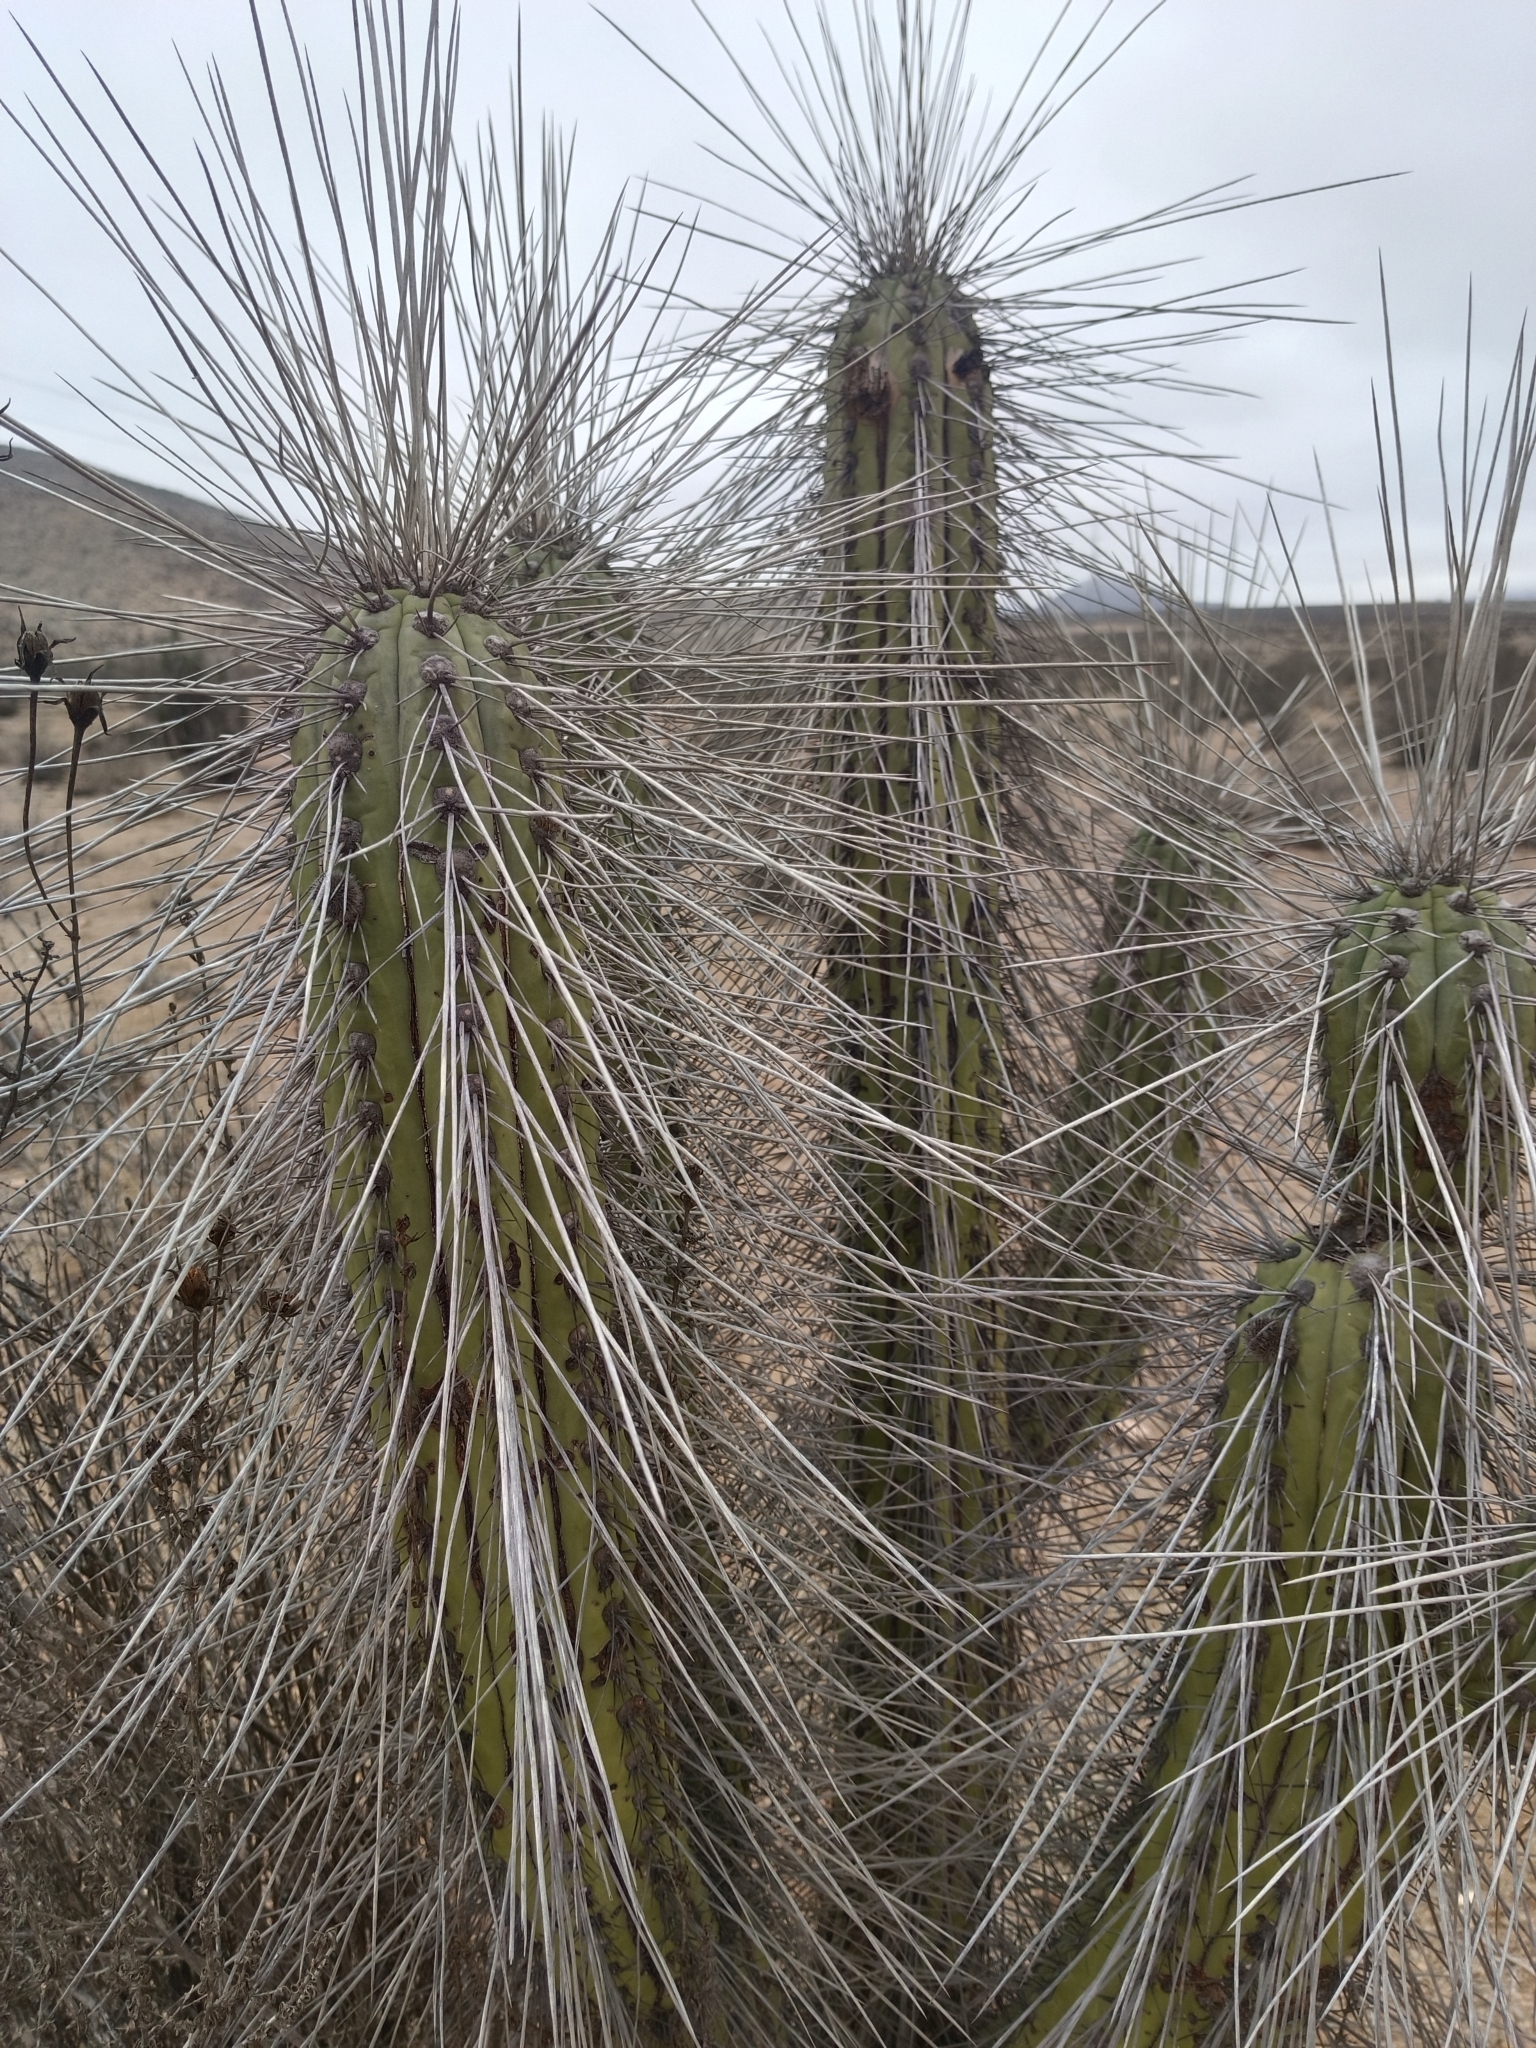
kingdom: Plantae
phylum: Tracheophyta
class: Magnoliopsida
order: Caryophyllales
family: Cactaceae
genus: Eulychnia
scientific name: Eulychnia acida
